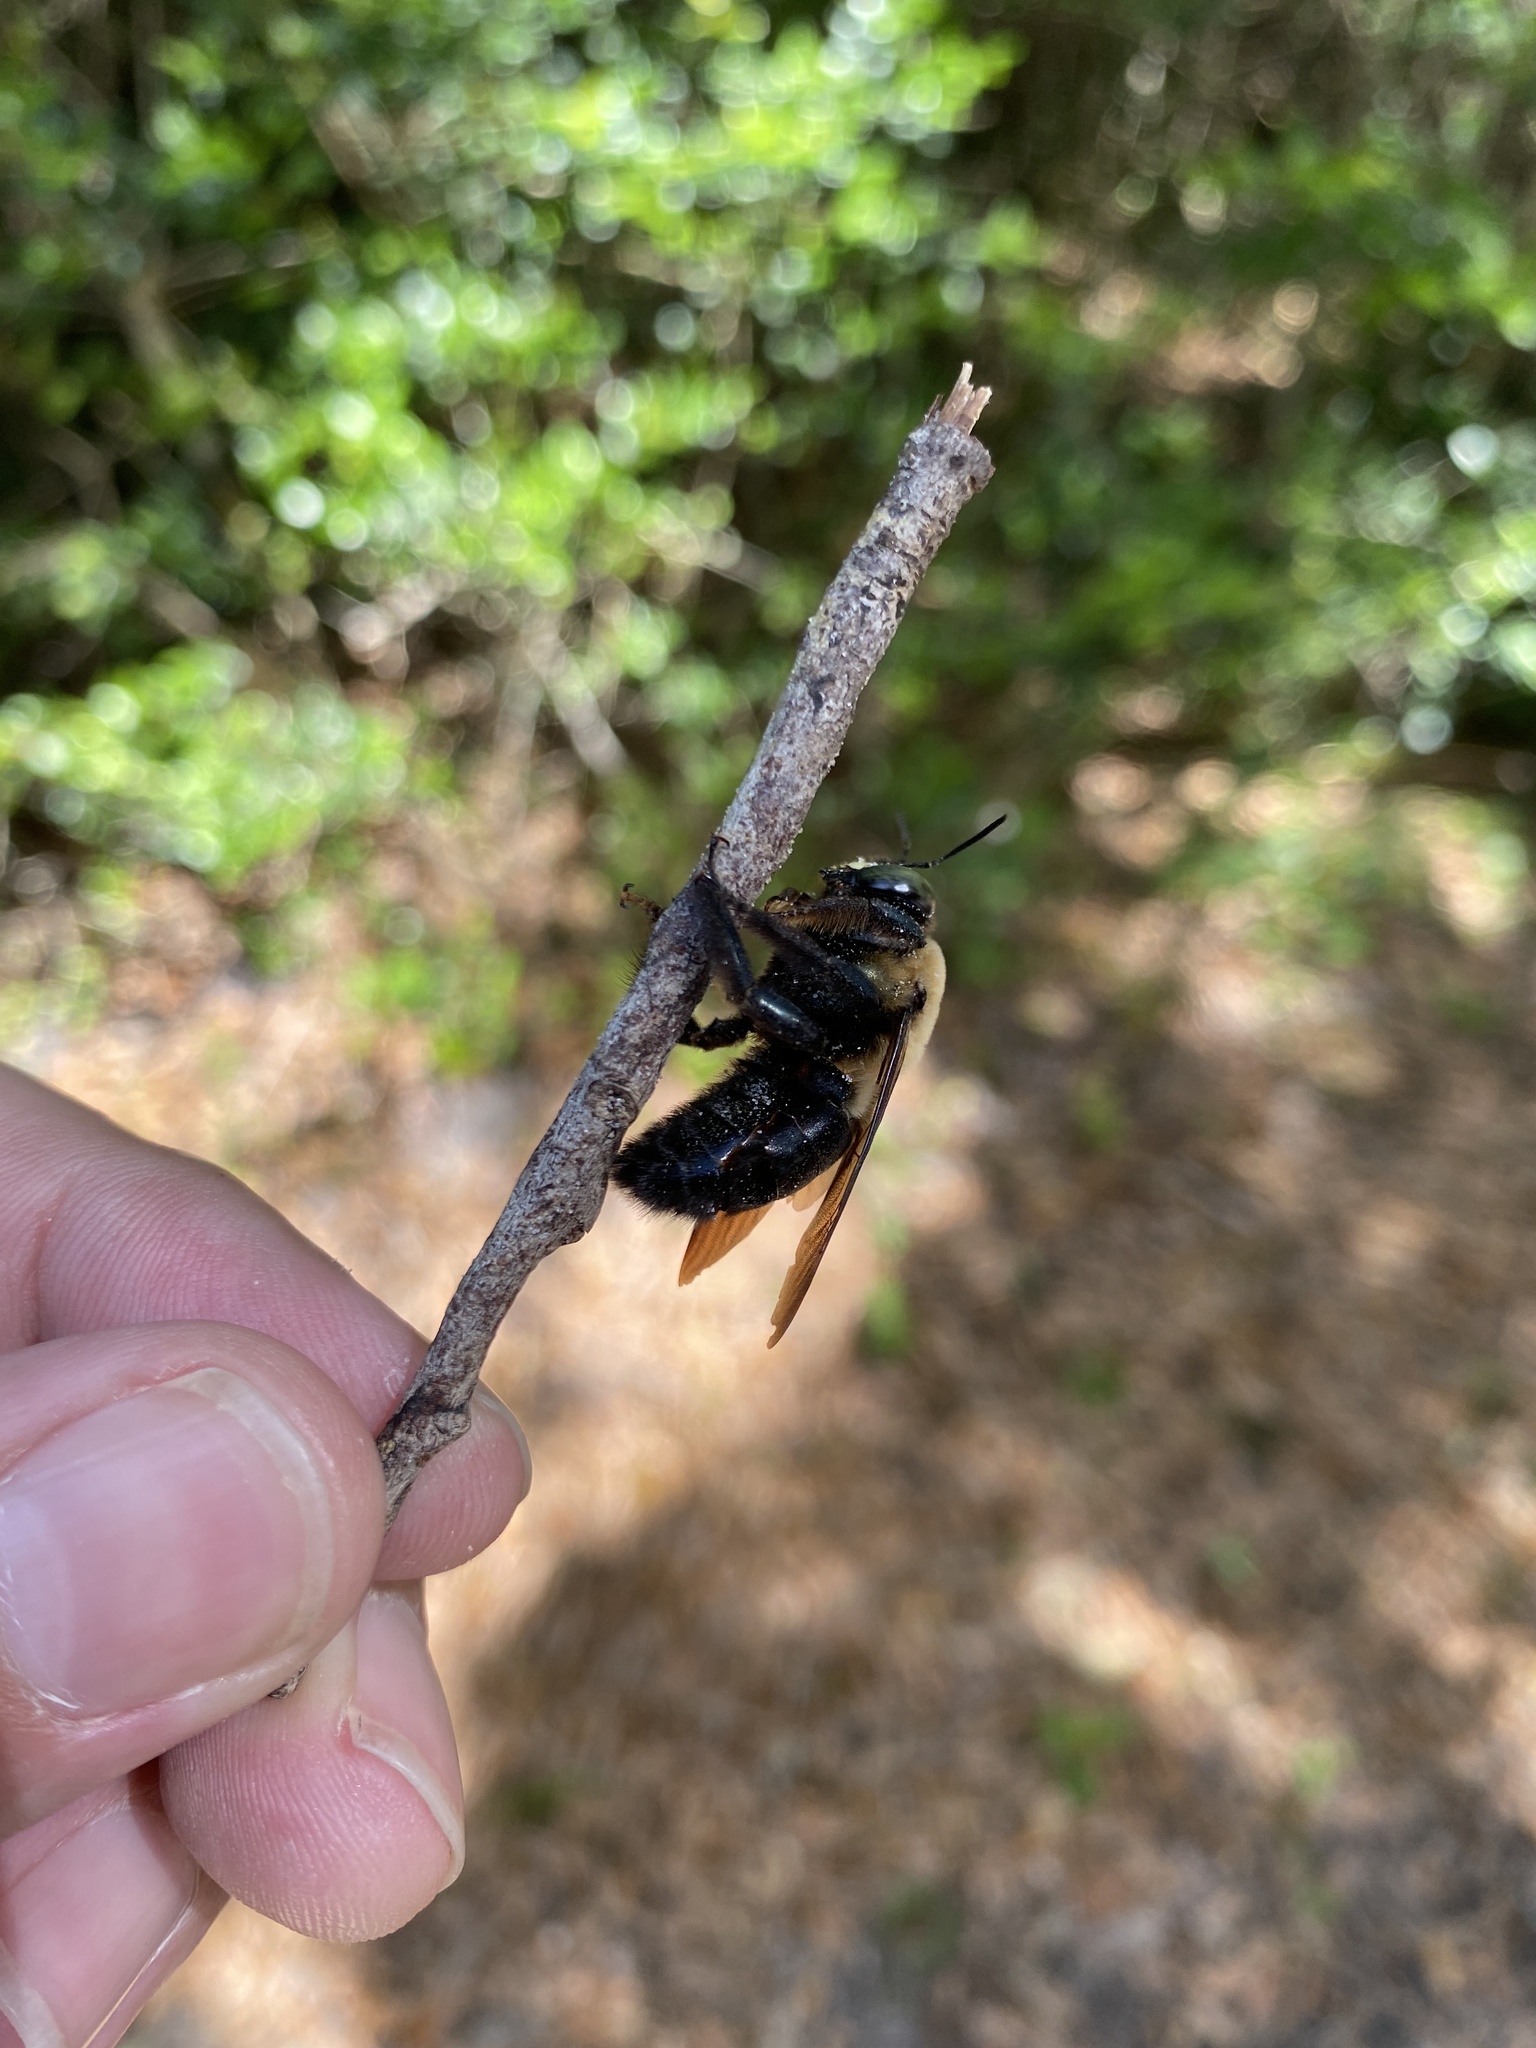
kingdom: Animalia
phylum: Arthropoda
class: Insecta
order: Hymenoptera
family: Apidae
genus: Xylocopa
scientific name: Xylocopa virginica
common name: Carpenter bee
